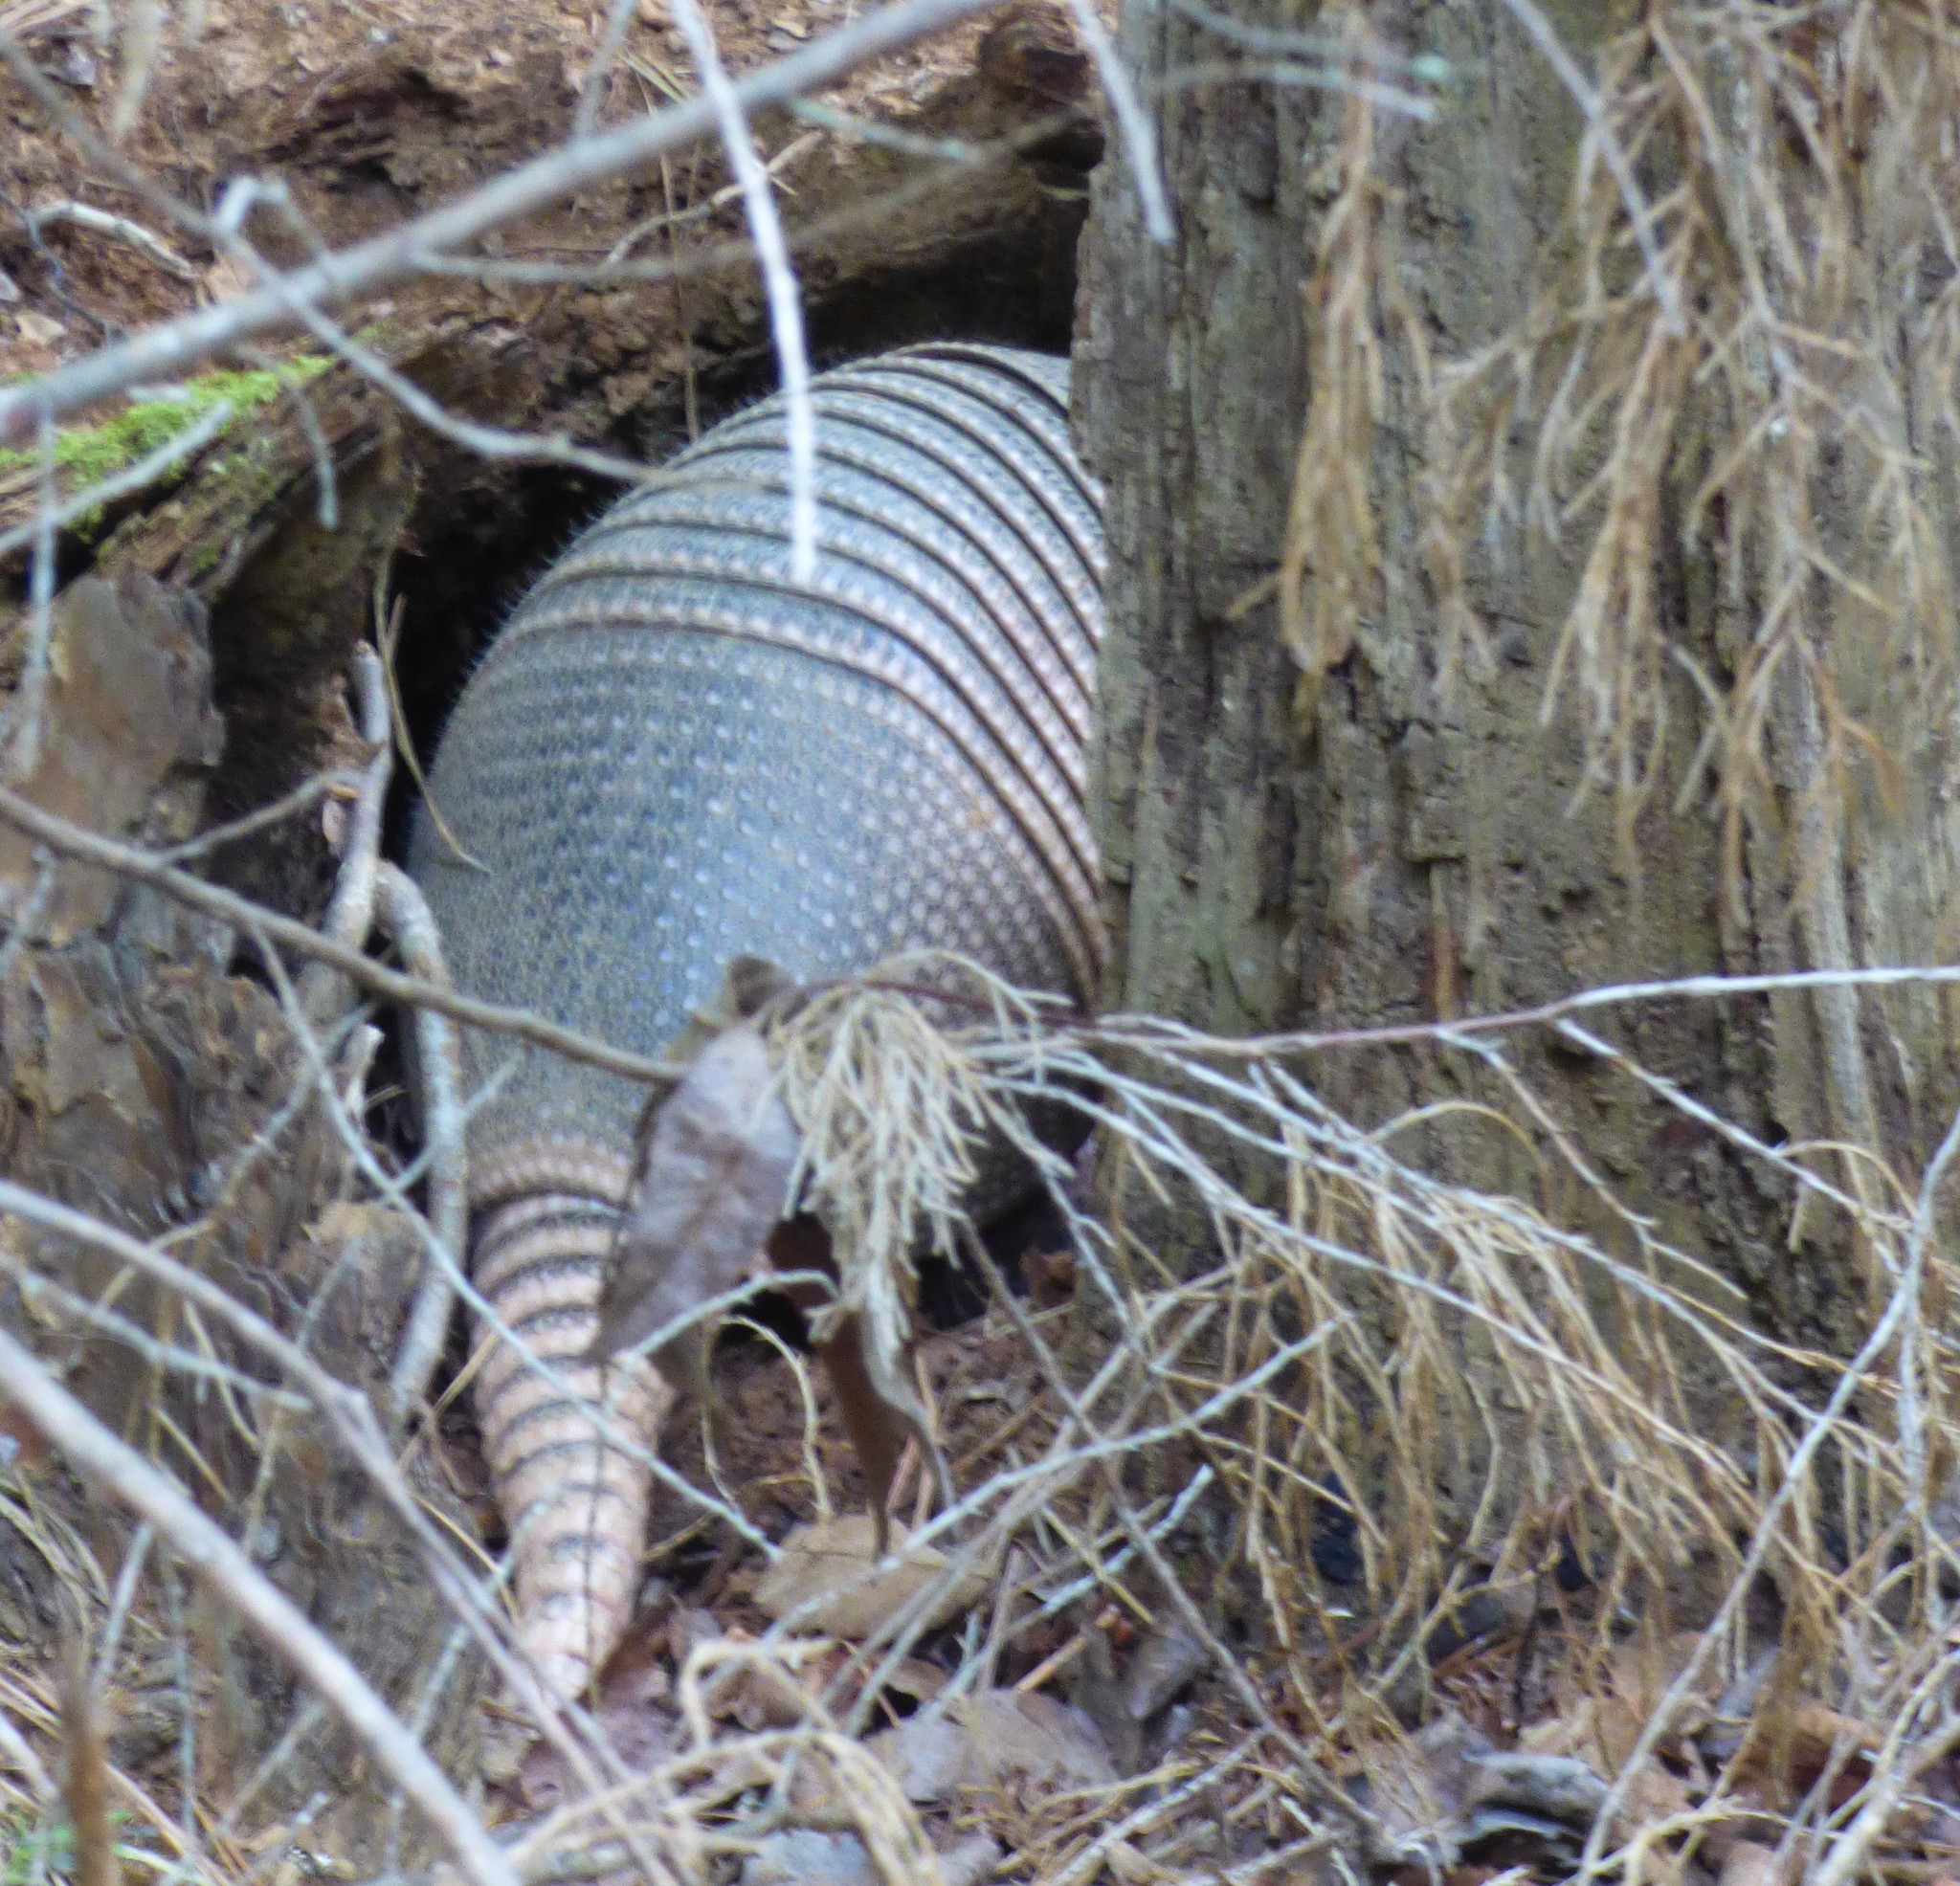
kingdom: Animalia
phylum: Chordata
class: Mammalia
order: Cingulata
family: Dasypodidae
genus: Dasypus
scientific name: Dasypus novemcinctus
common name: Nine-banded armadillo
